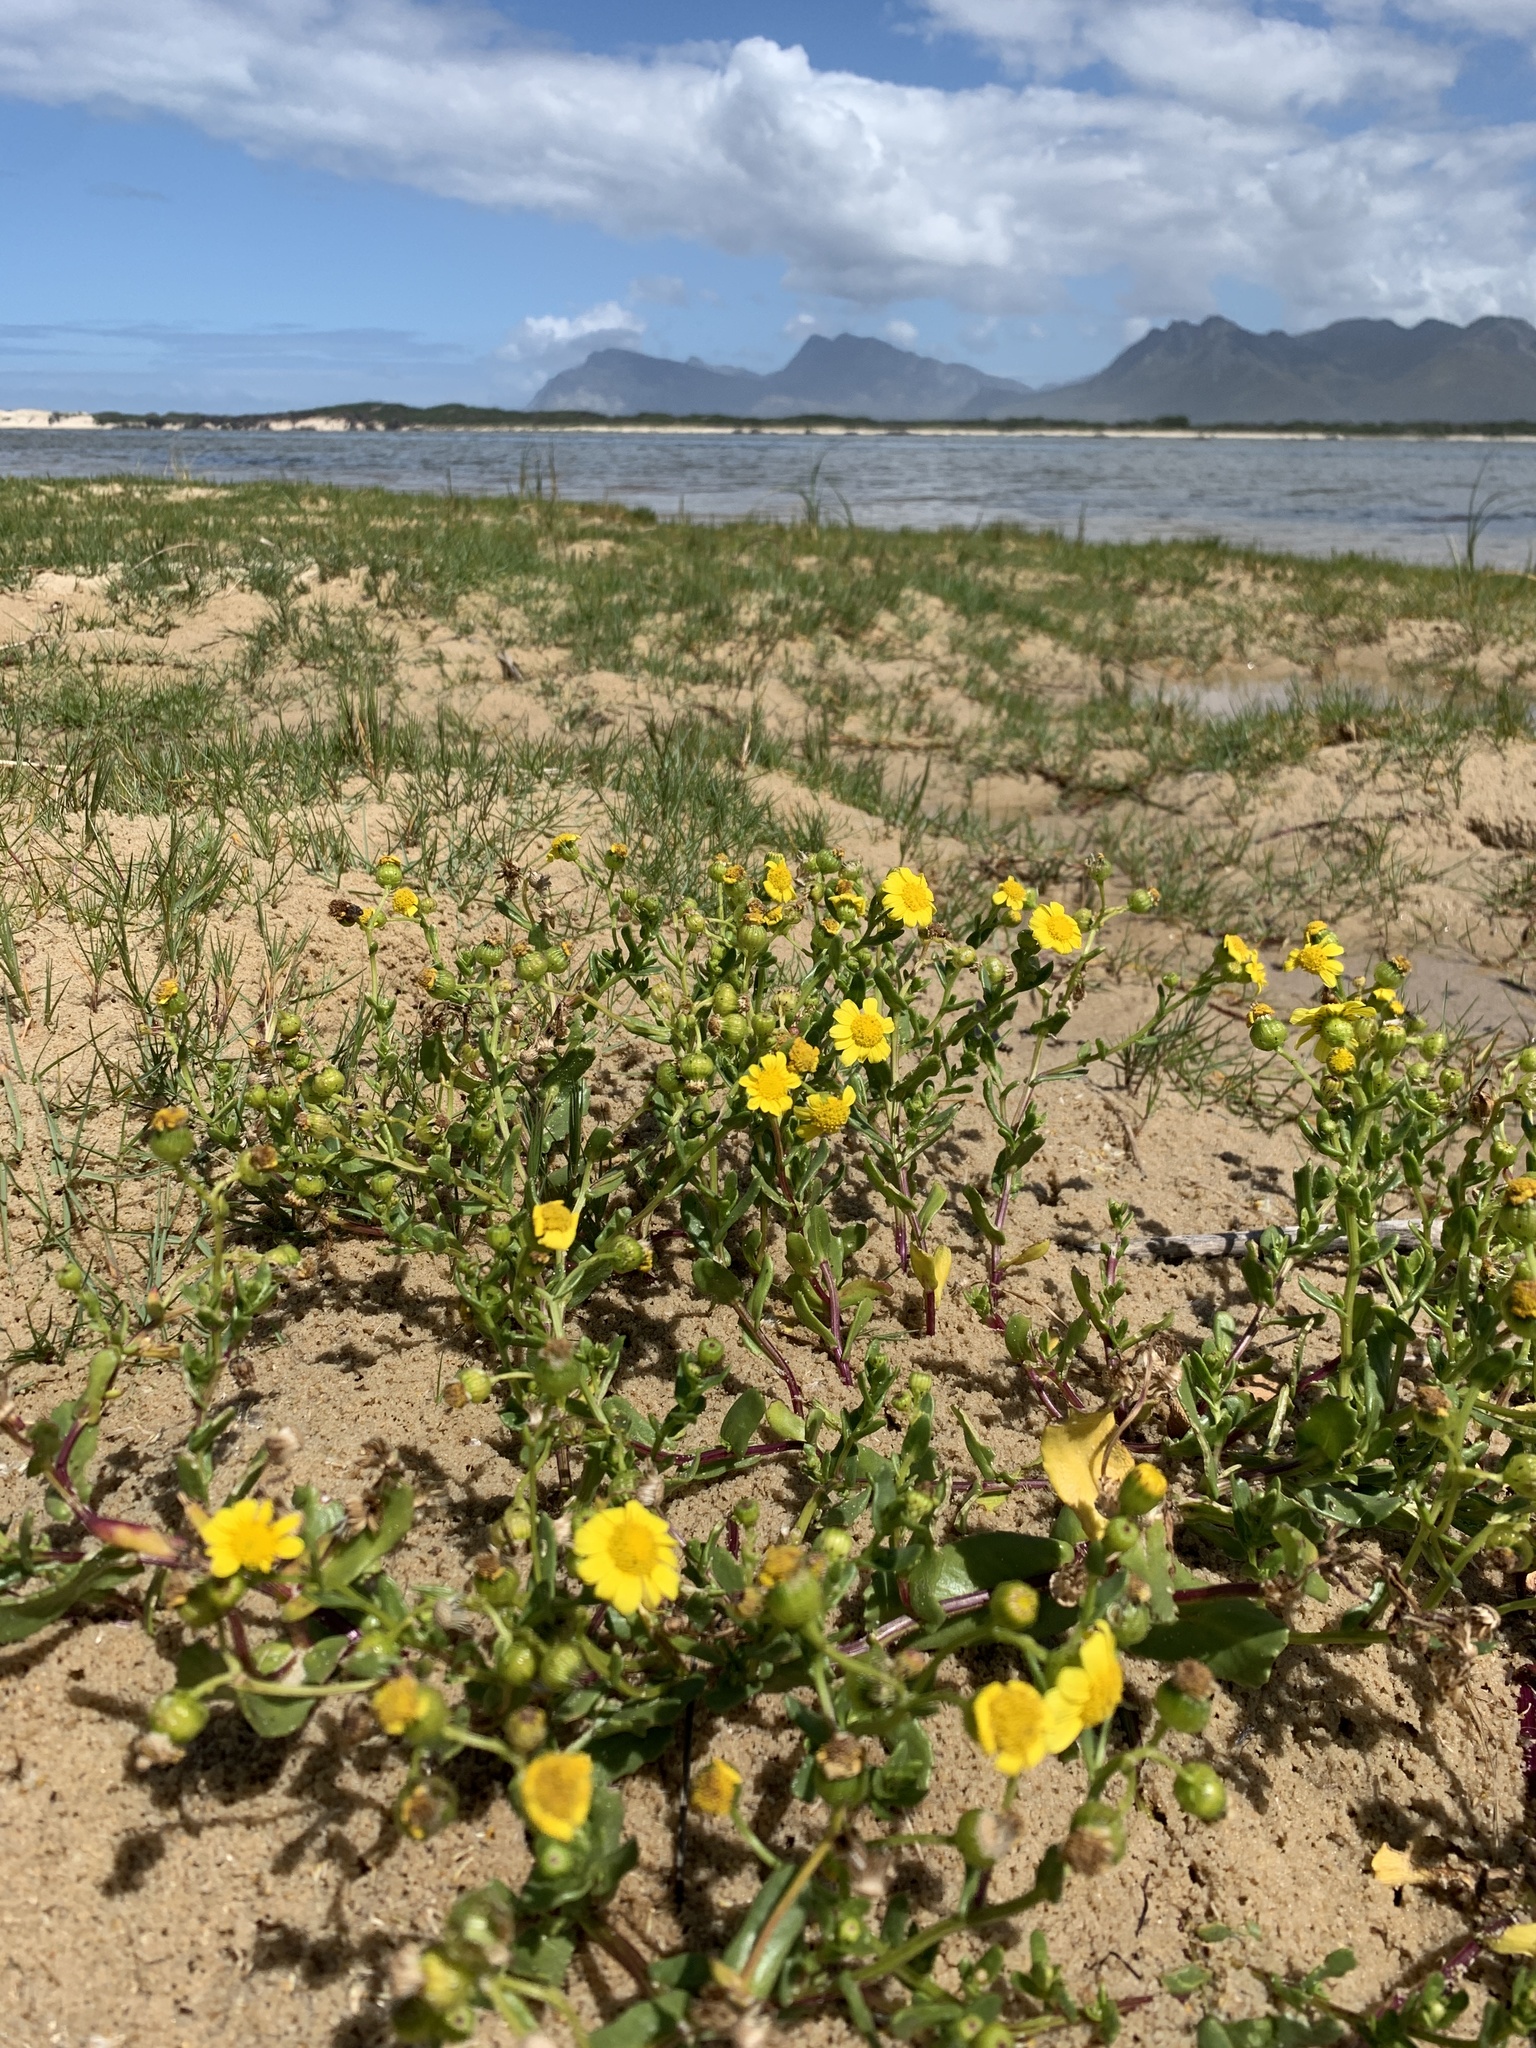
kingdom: Plantae
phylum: Tracheophyta
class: Magnoliopsida
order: Asterales
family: Asteraceae
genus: Senecio
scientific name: Senecio maritimus
